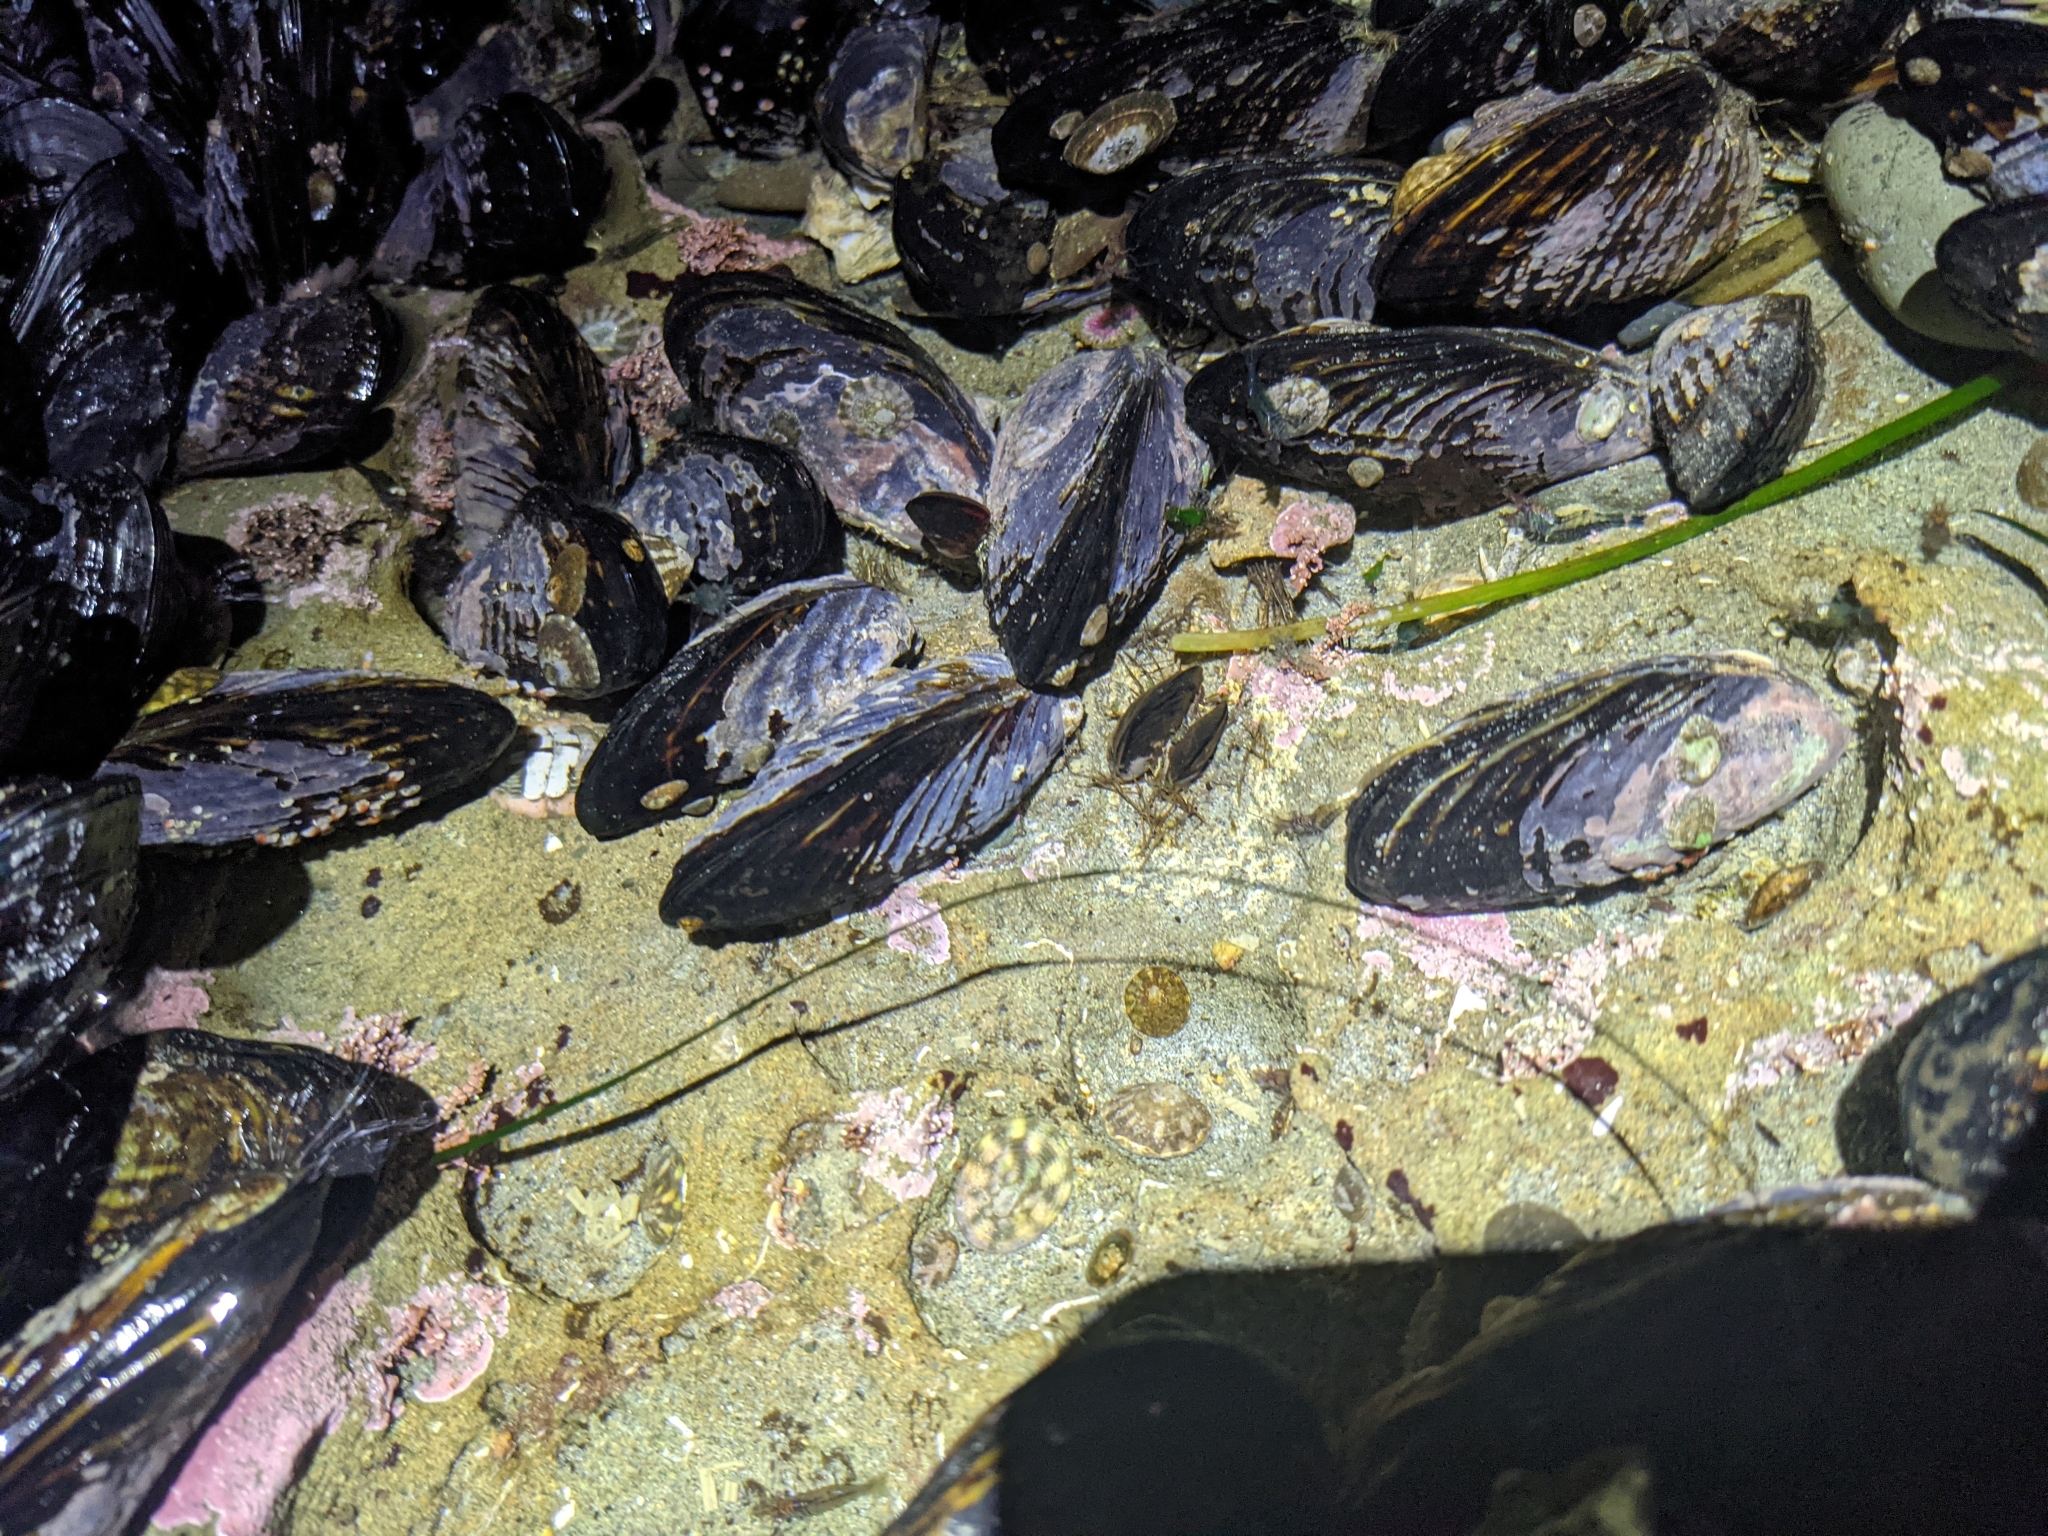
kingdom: Animalia
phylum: Mollusca
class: Bivalvia
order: Mytilida
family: Mytilidae
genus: Mytilus
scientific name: Mytilus californianus
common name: California mussel
